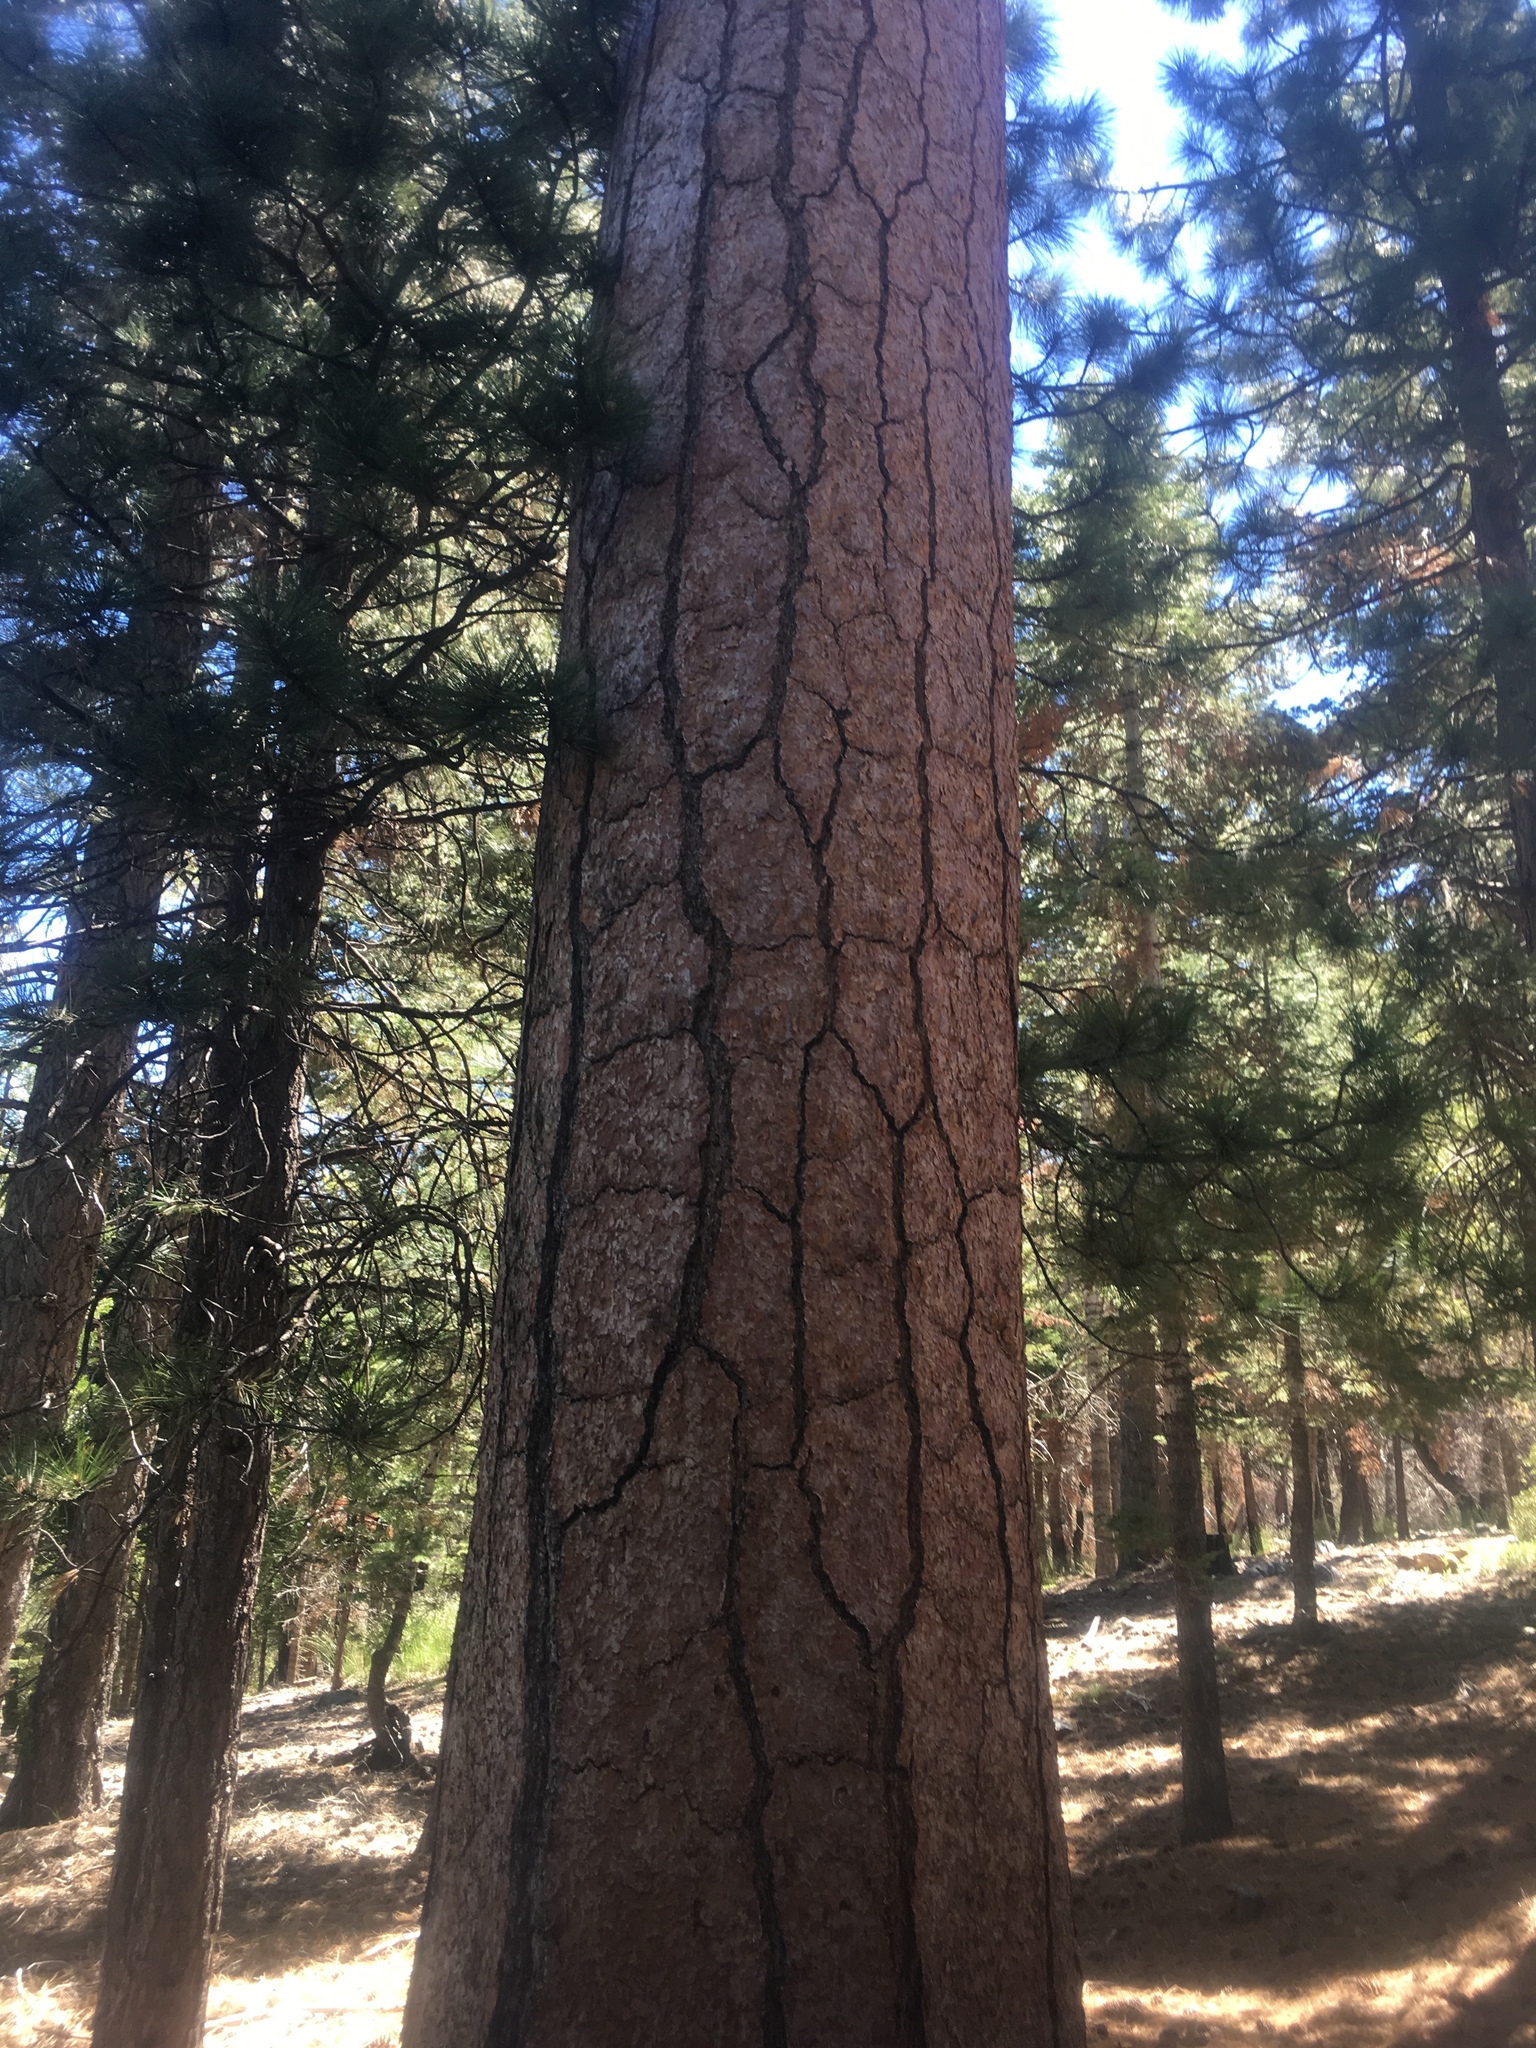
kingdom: Plantae
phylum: Tracheophyta
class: Pinopsida
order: Pinales
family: Pinaceae
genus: Pinus
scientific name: Pinus ponderosa
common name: Western yellow-pine
